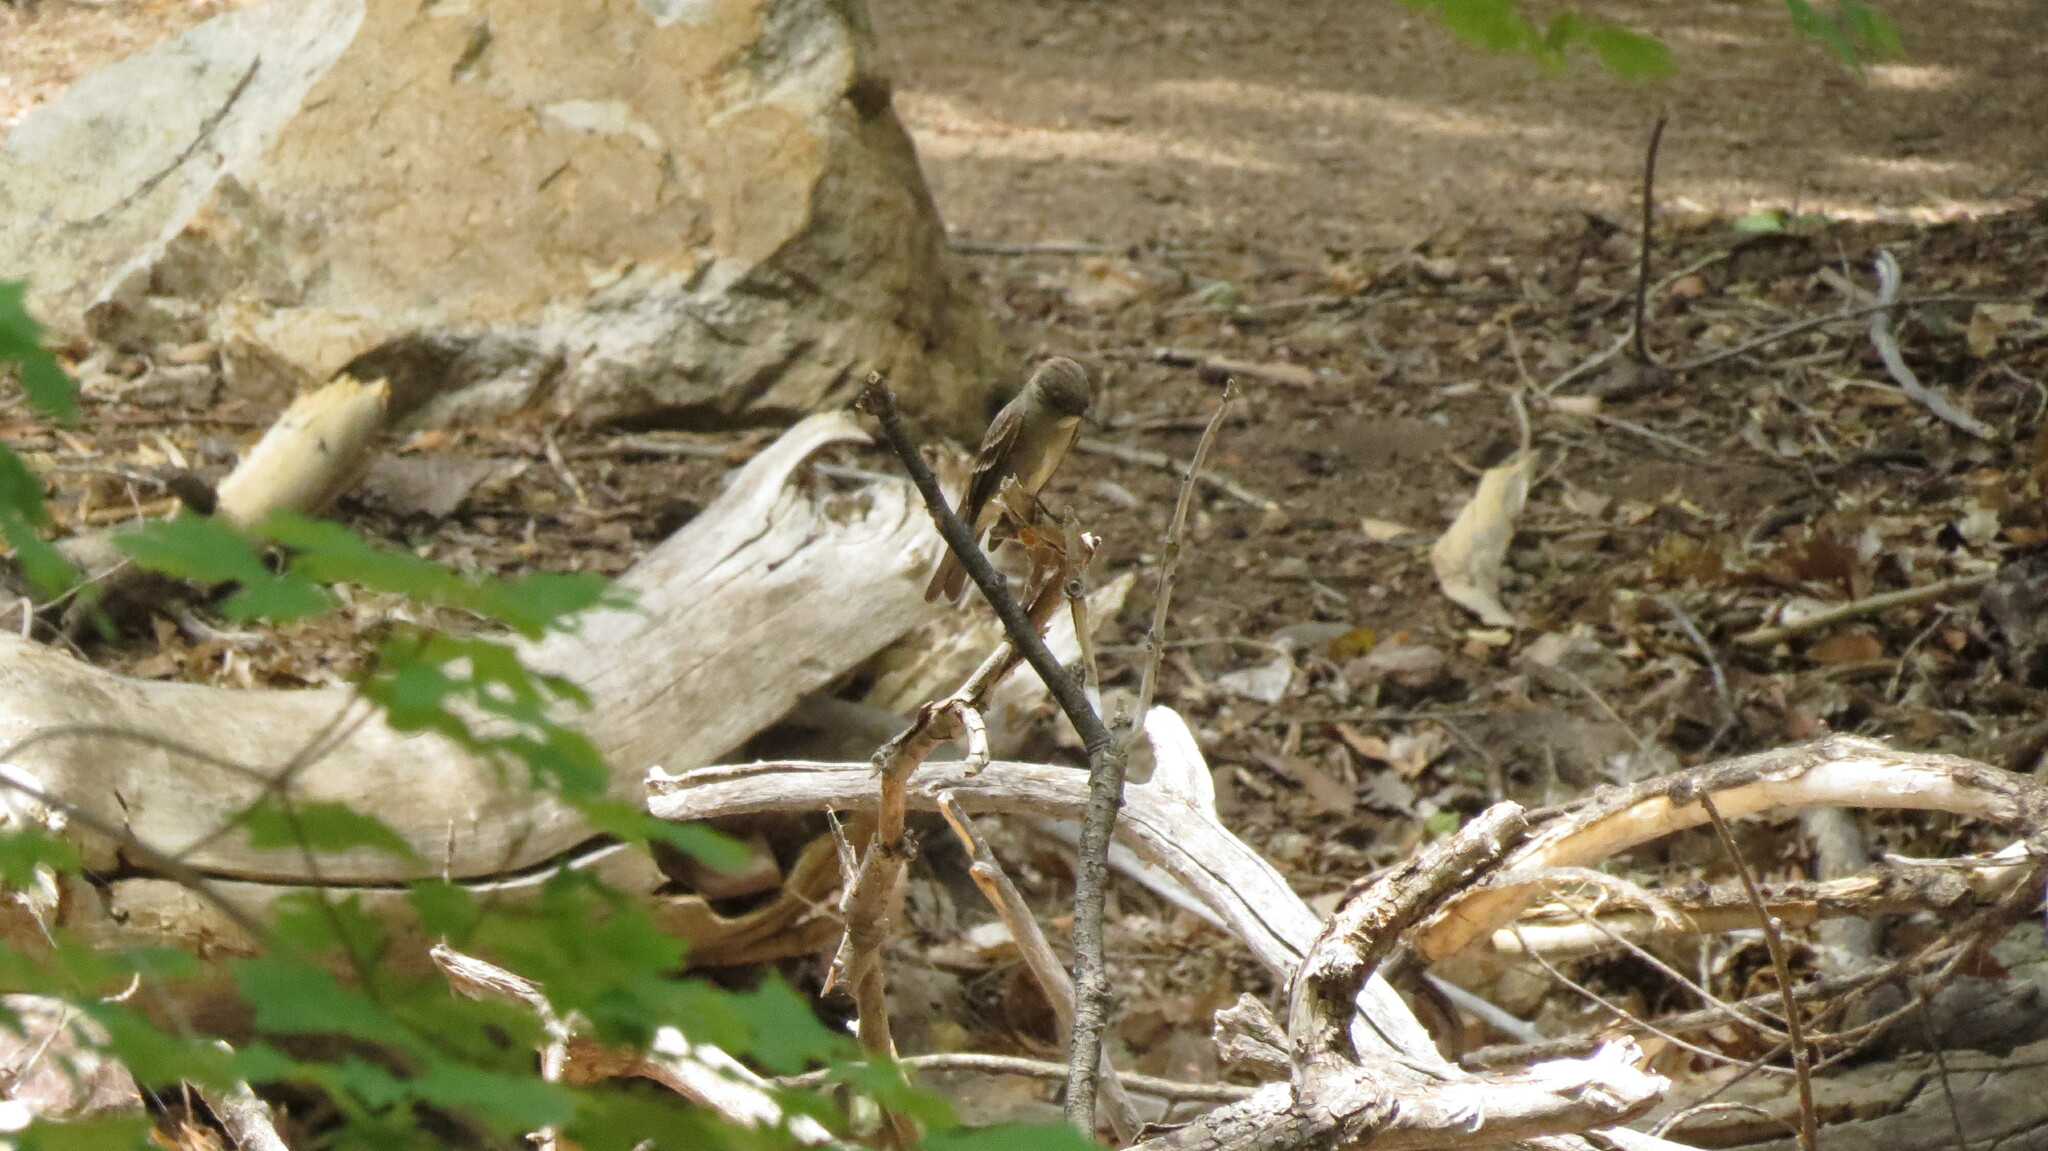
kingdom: Animalia
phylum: Chordata
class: Aves
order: Passeriformes
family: Tyrannidae
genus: Contopus
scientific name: Contopus sordidulus
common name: Western wood-pewee
